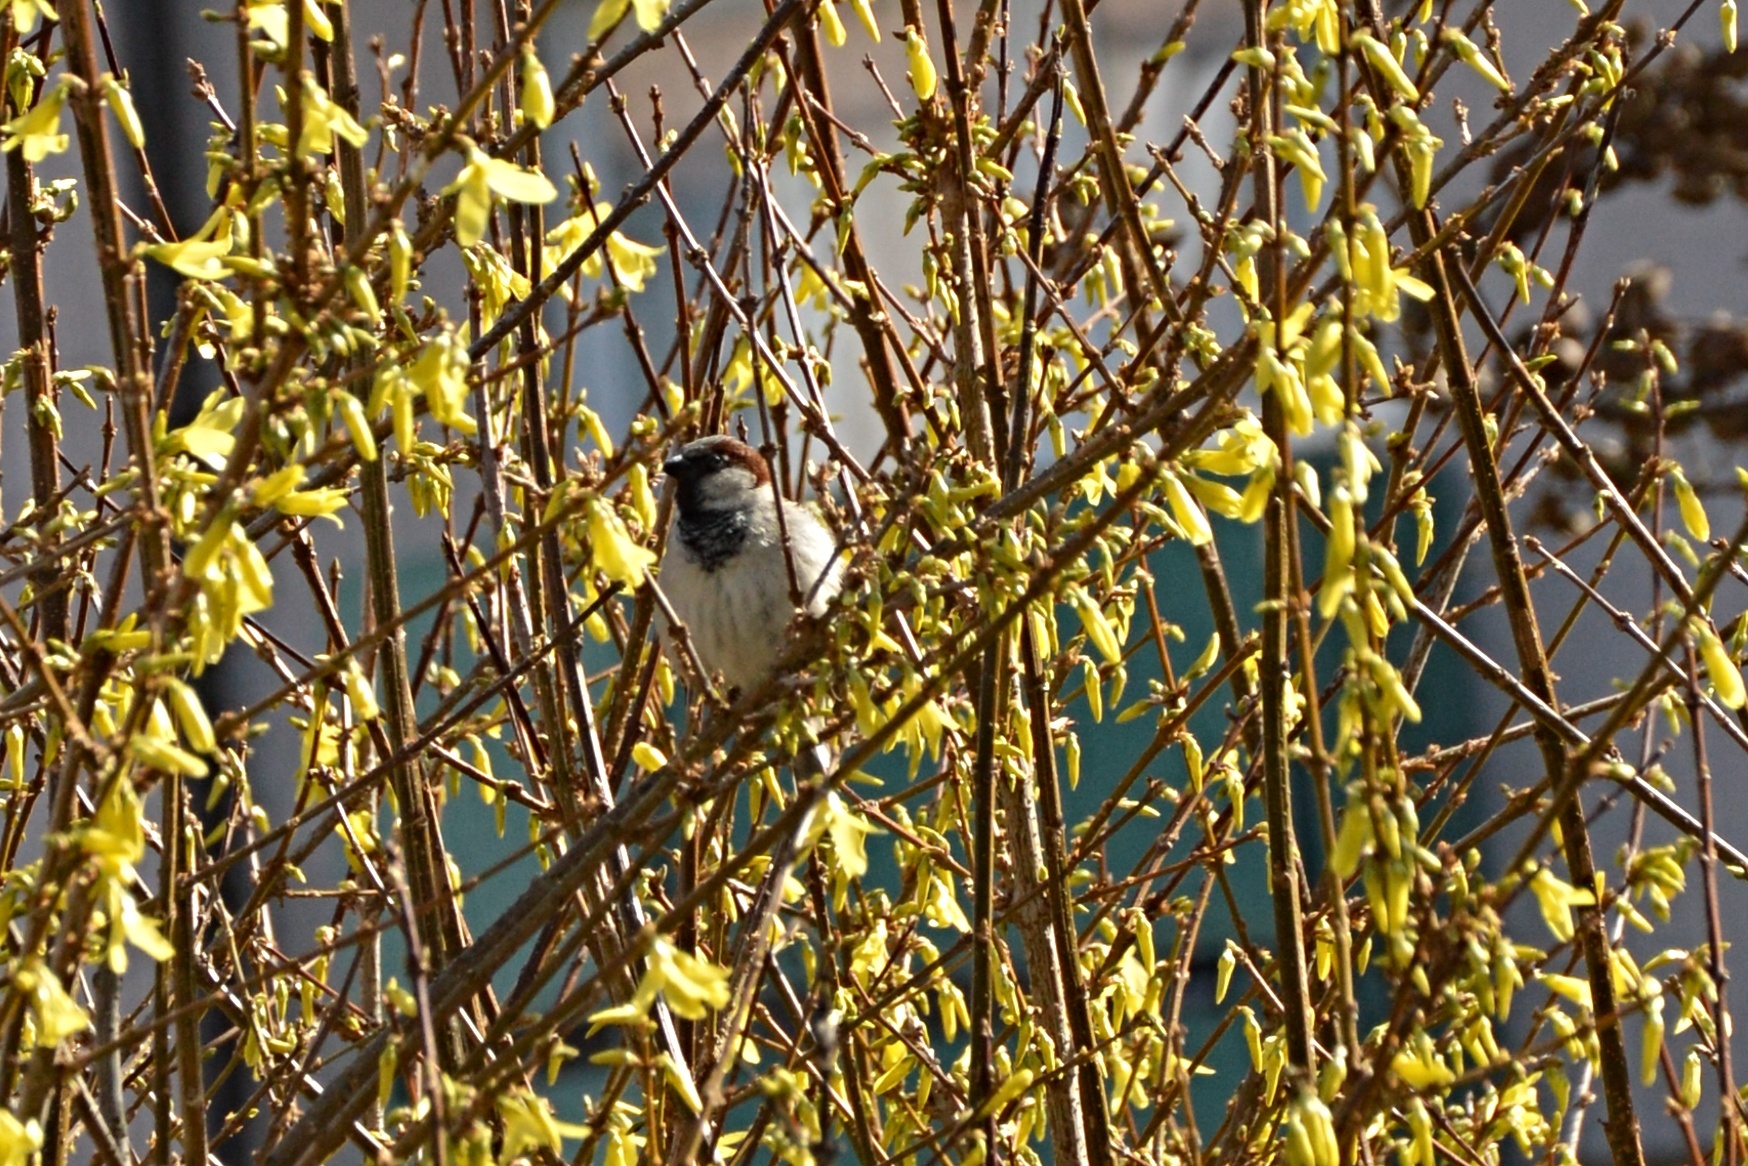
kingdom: Animalia
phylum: Chordata
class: Aves
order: Passeriformes
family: Passeridae
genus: Passer
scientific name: Passer domesticus
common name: House sparrow
